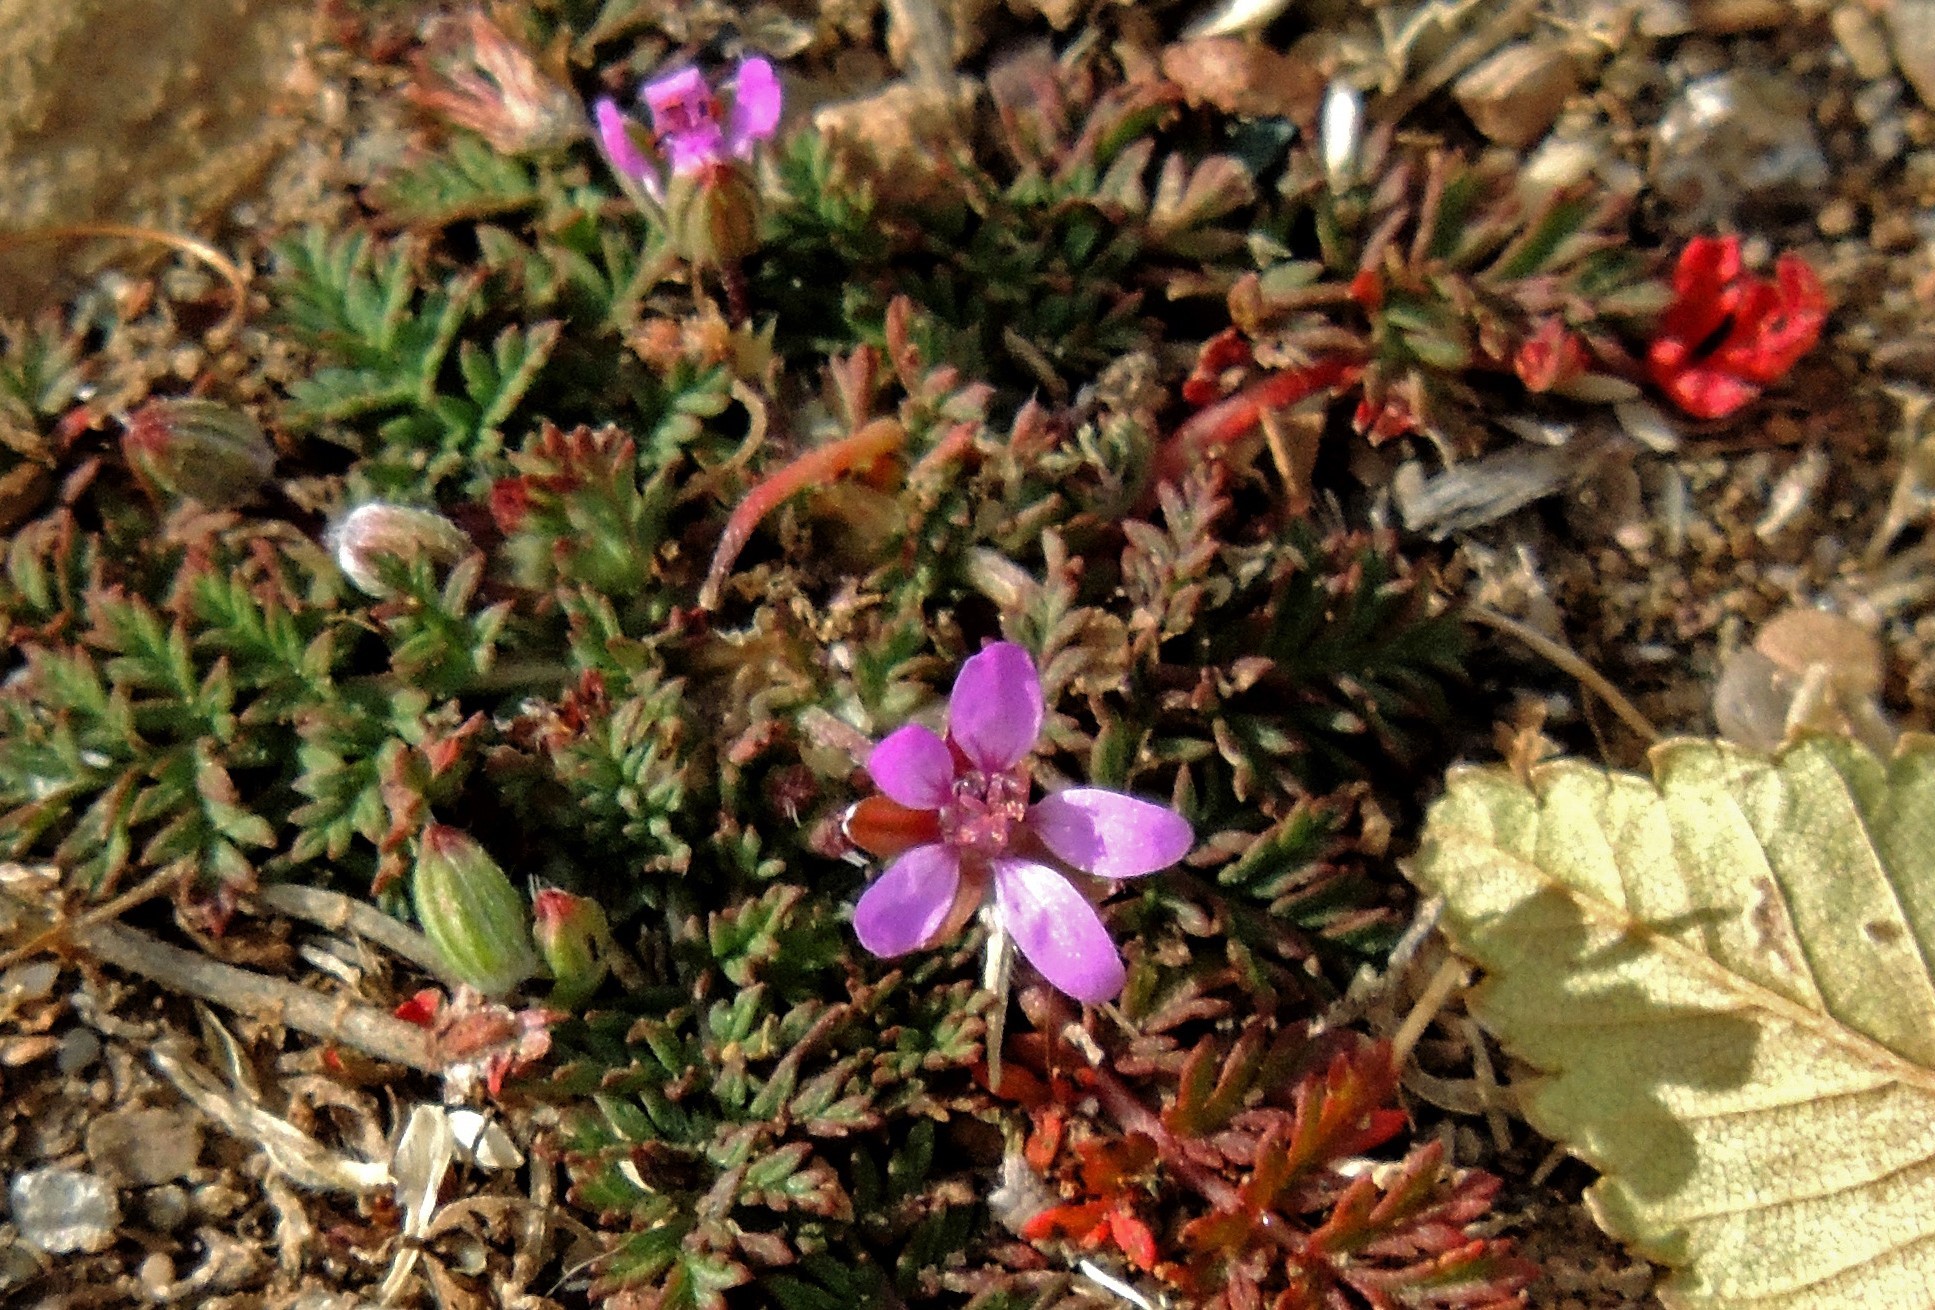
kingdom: Plantae
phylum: Tracheophyta
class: Magnoliopsida
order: Geraniales
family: Geraniaceae
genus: Erodium
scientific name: Erodium cicutarium
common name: Common stork's-bill
